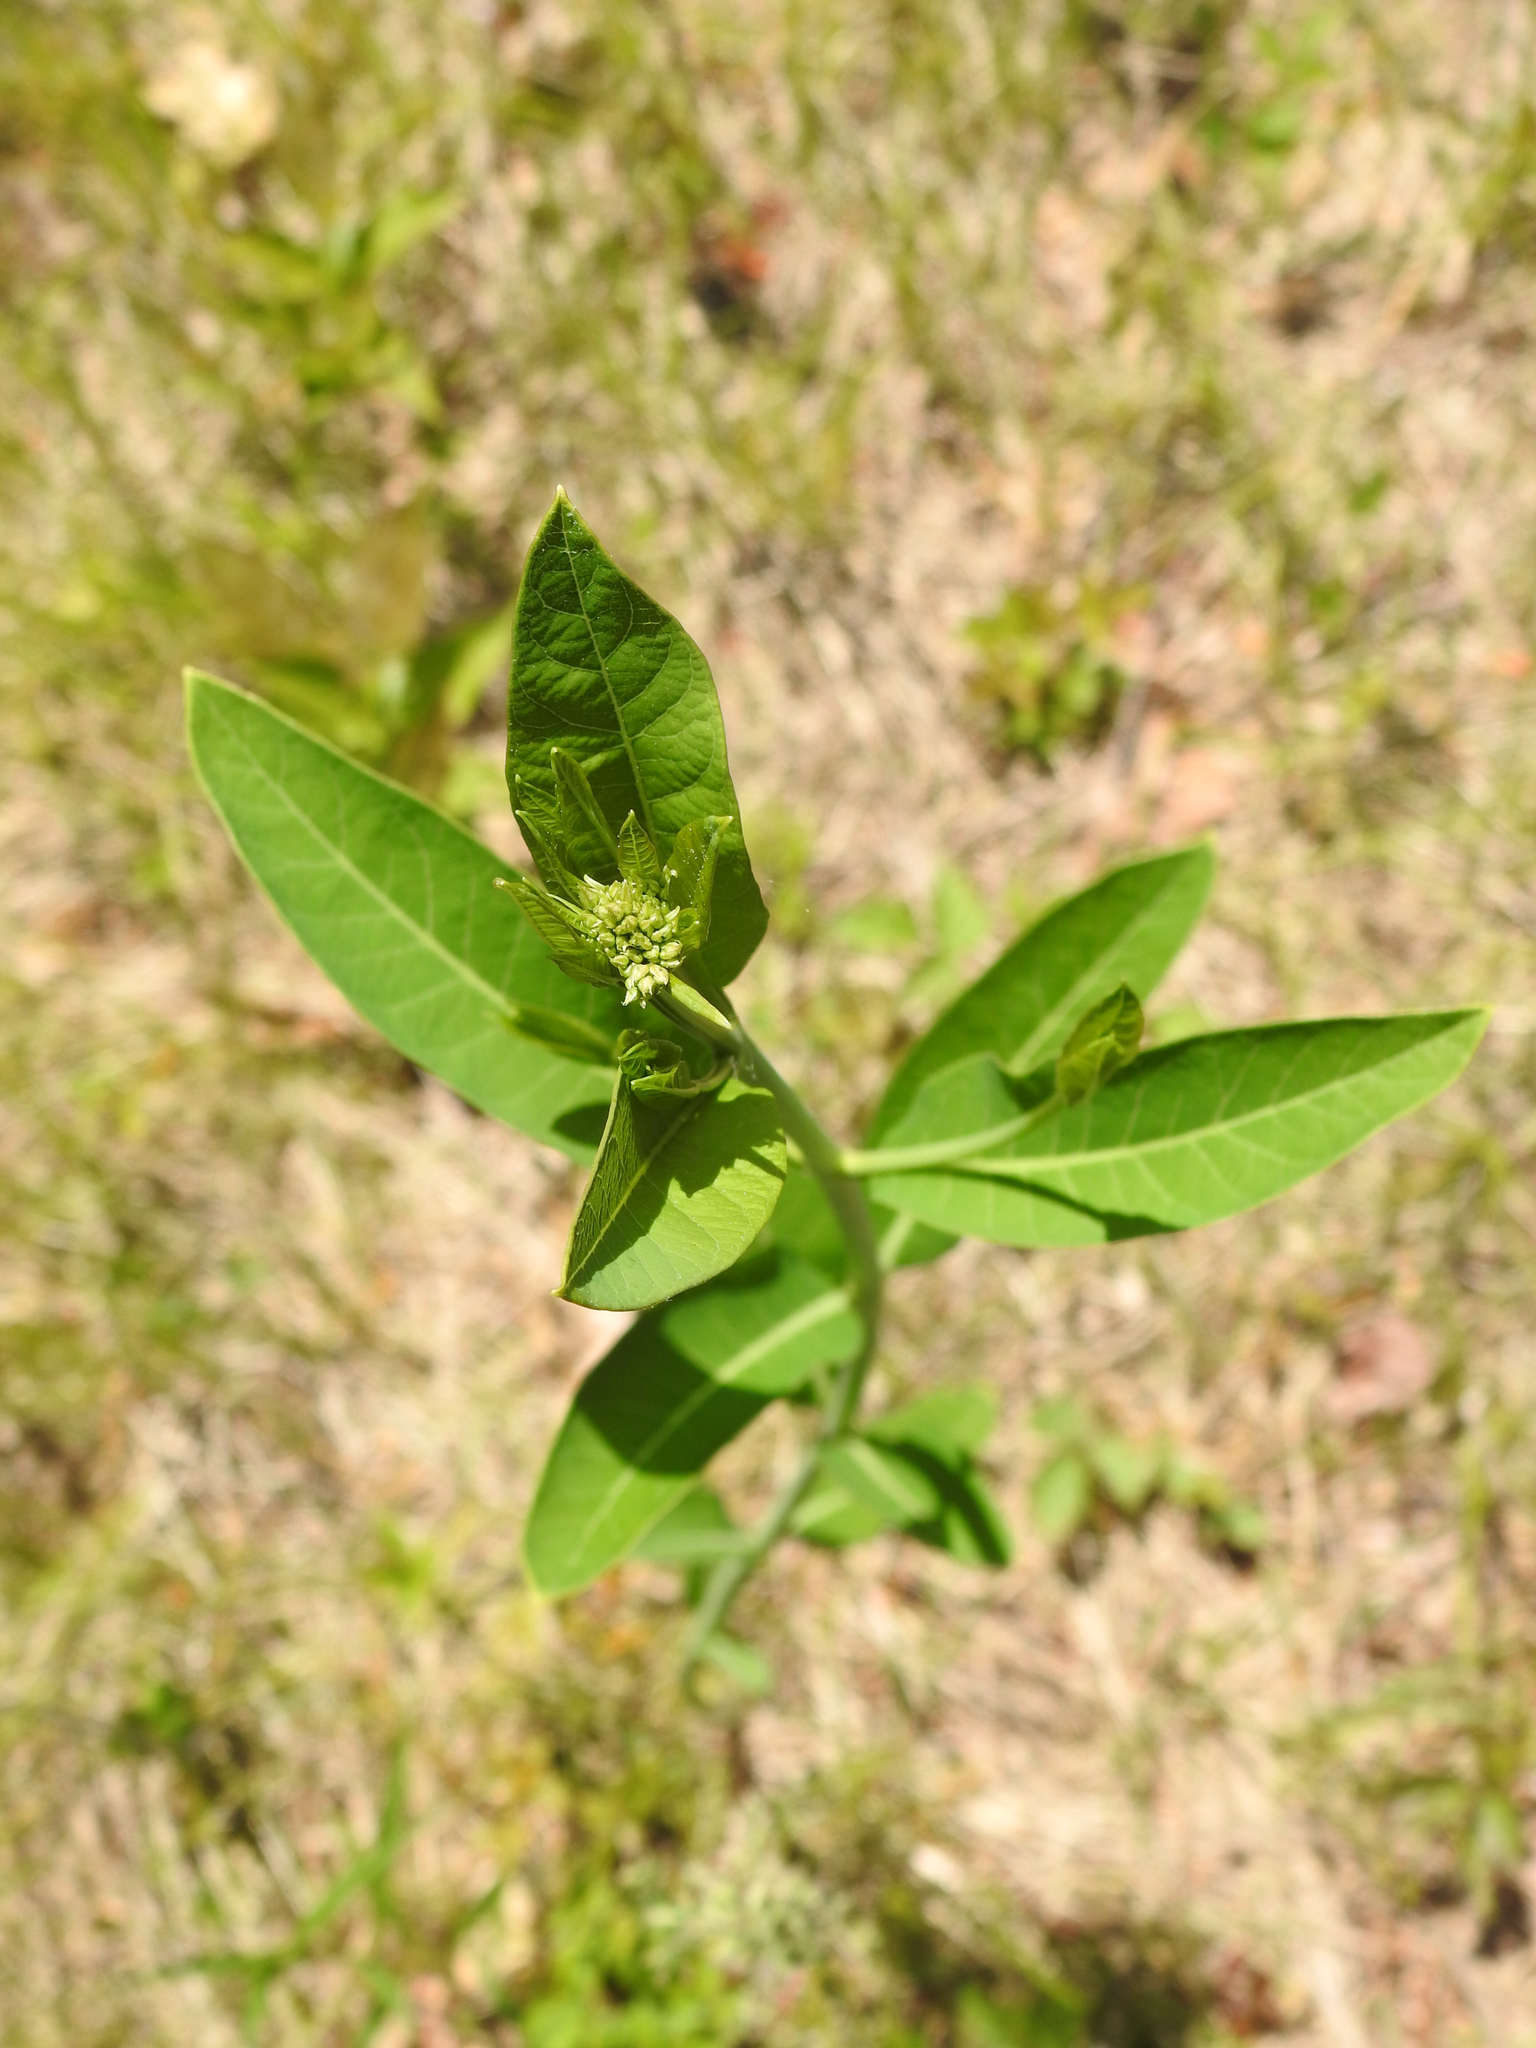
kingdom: Plantae
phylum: Tracheophyta
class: Magnoliopsida
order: Gentianales
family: Apocynaceae
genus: Apocynum
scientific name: Apocynum cannabinum
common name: Hemp dogbane
